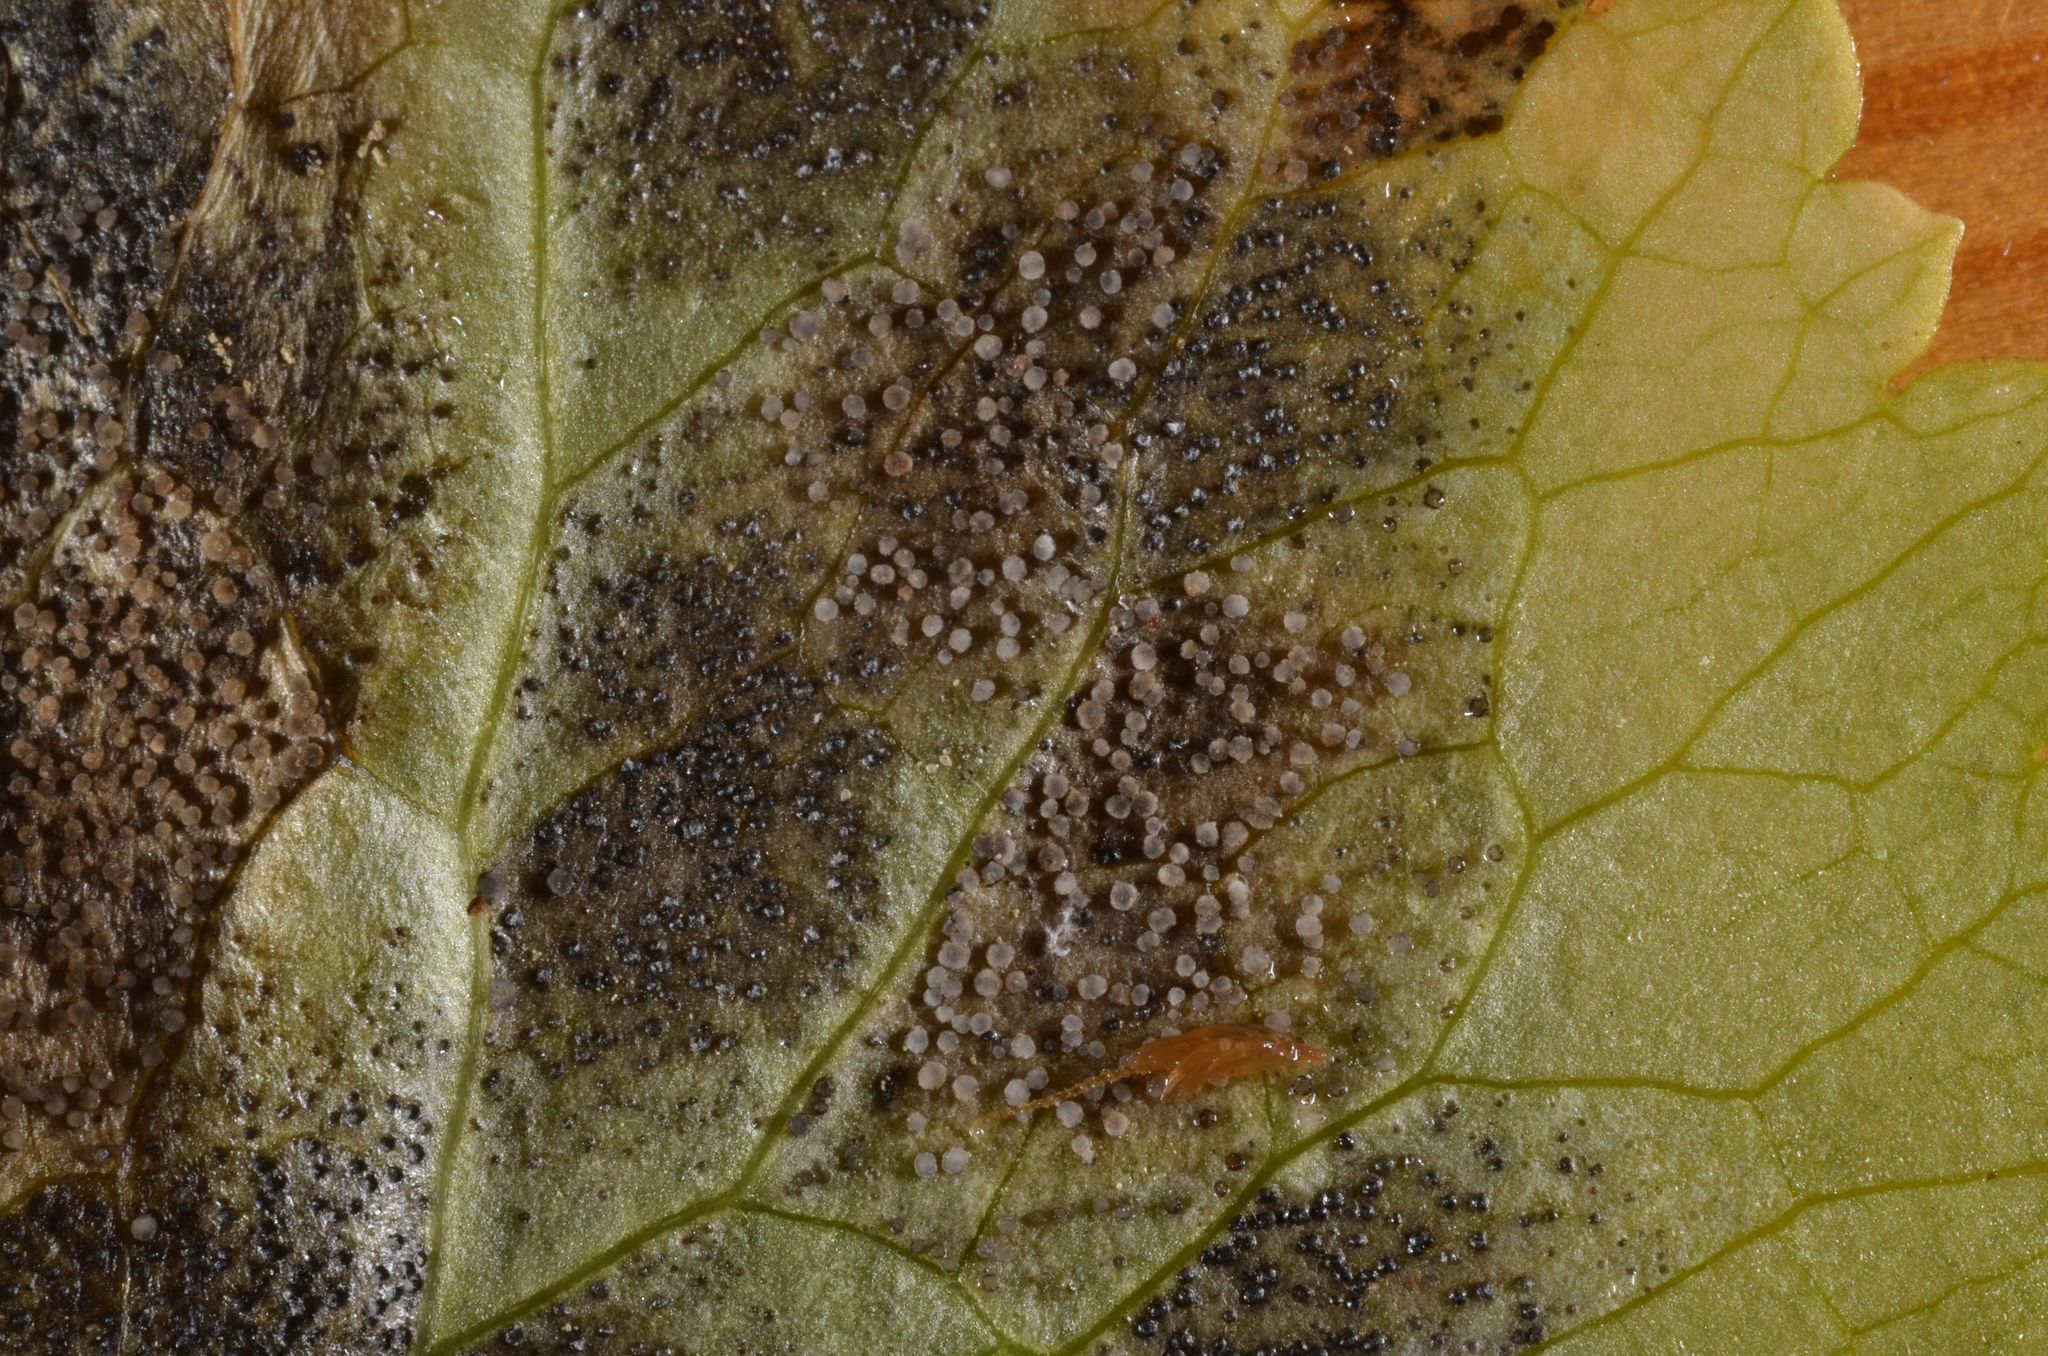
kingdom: Fungi
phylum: Ascomycota
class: Leotiomycetes
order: Helotiales
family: Drepanopezizaceae
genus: Leptotrochila
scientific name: Leptotrochila ranunculi
